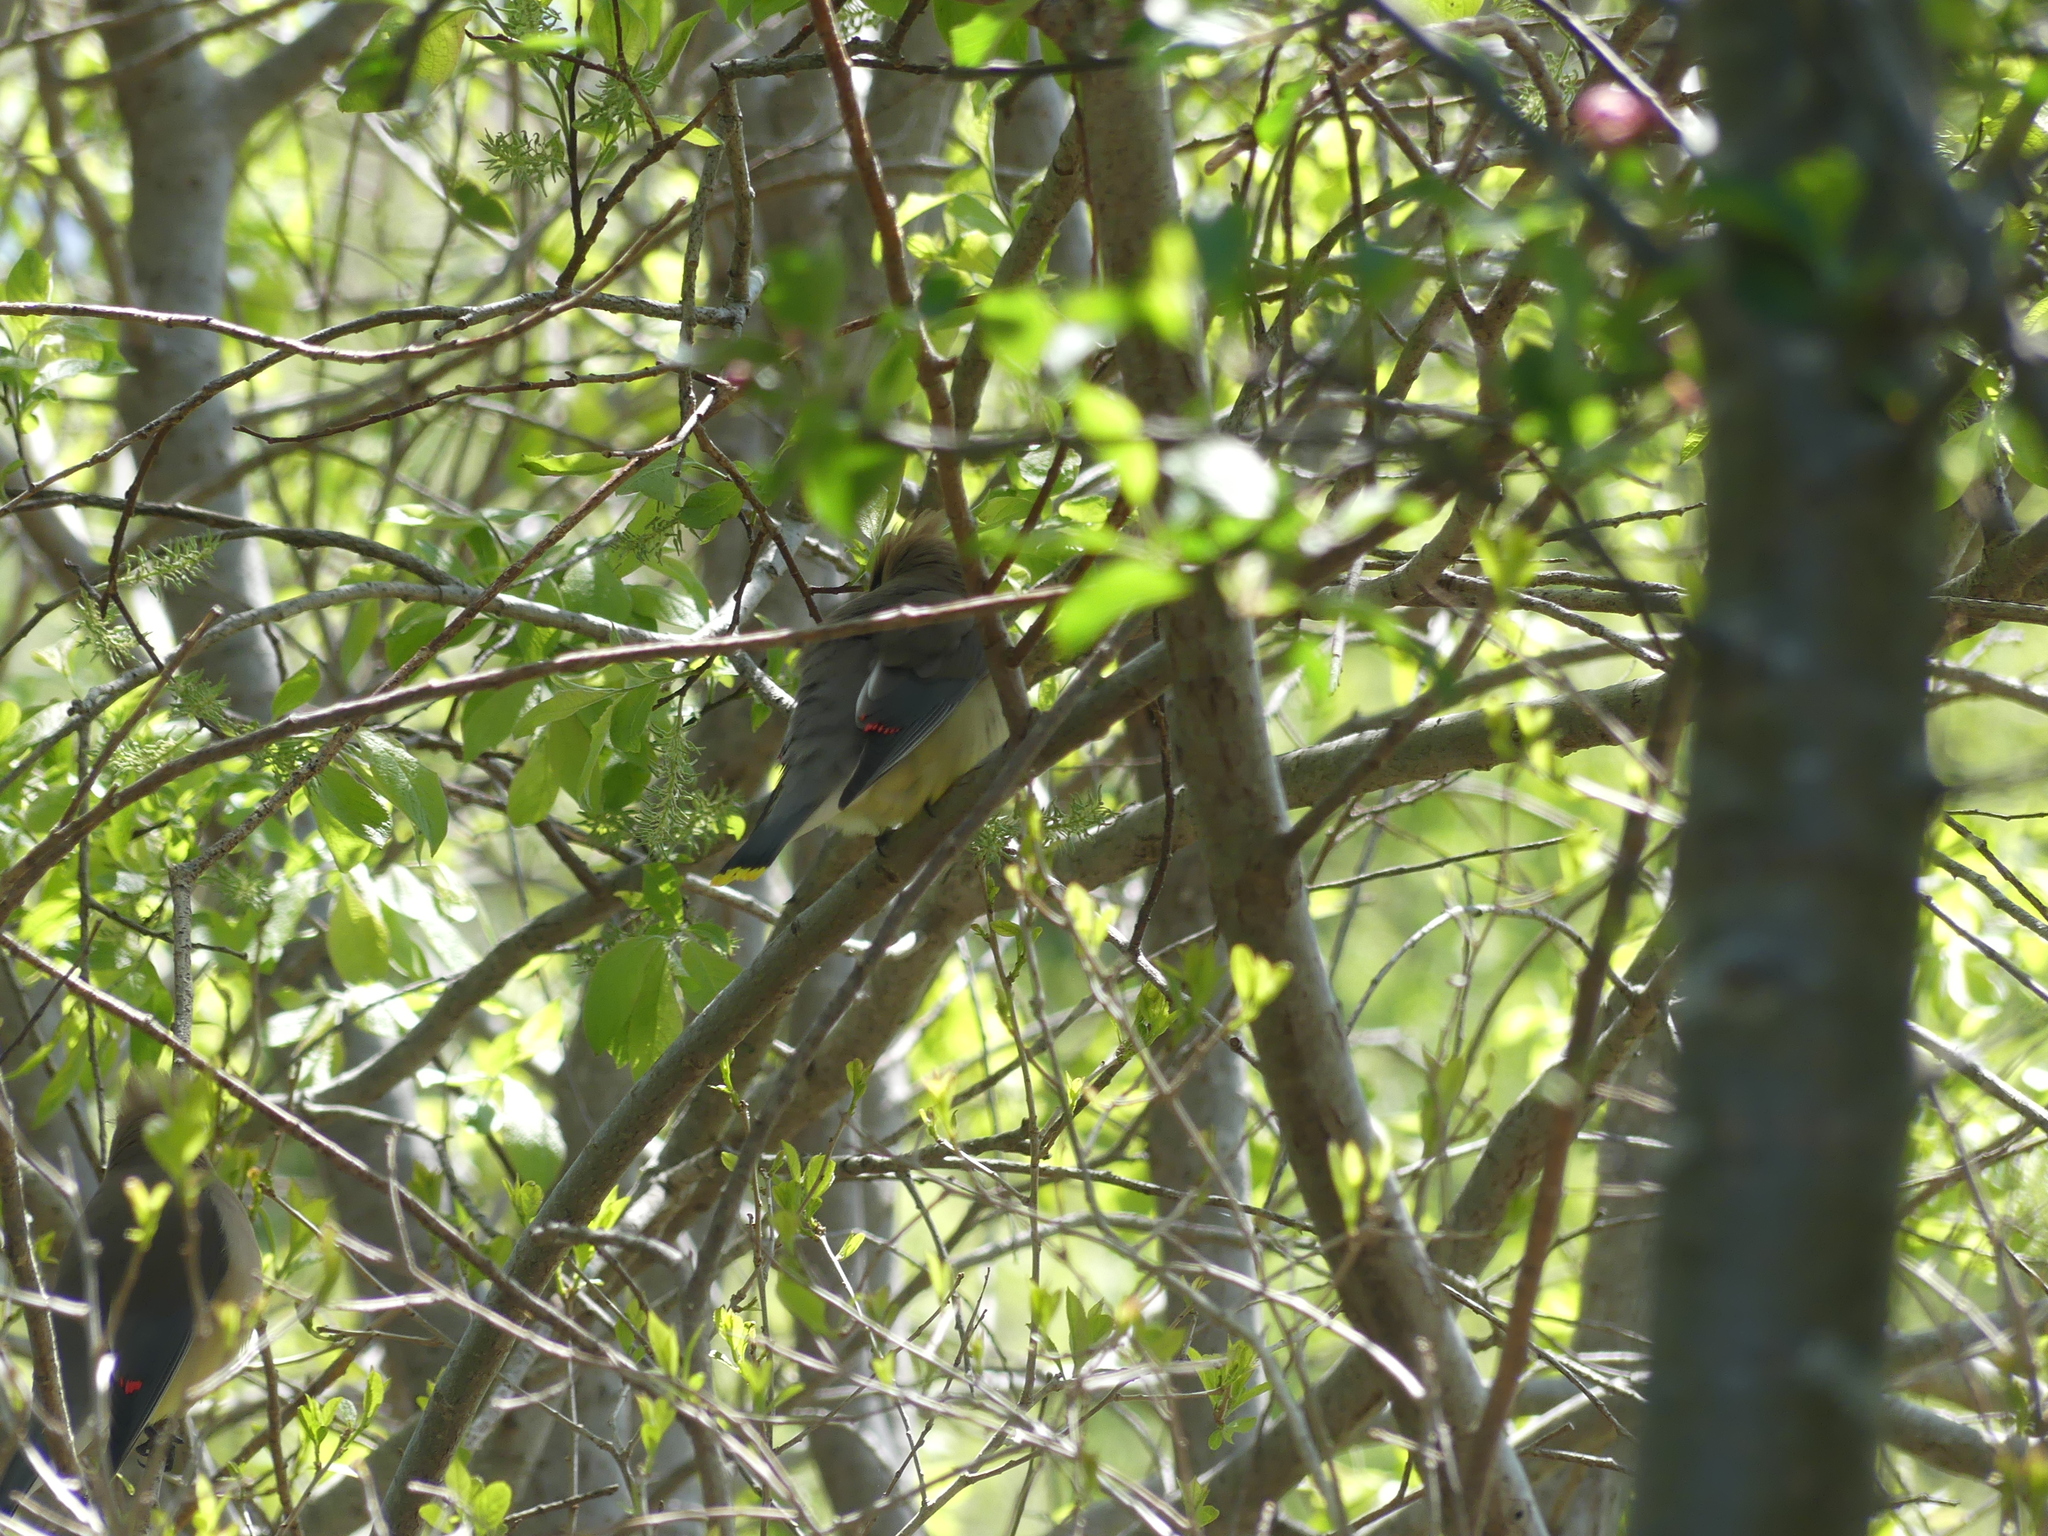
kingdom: Animalia
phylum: Chordata
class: Aves
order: Passeriformes
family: Bombycillidae
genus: Bombycilla
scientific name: Bombycilla cedrorum
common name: Cedar waxwing
